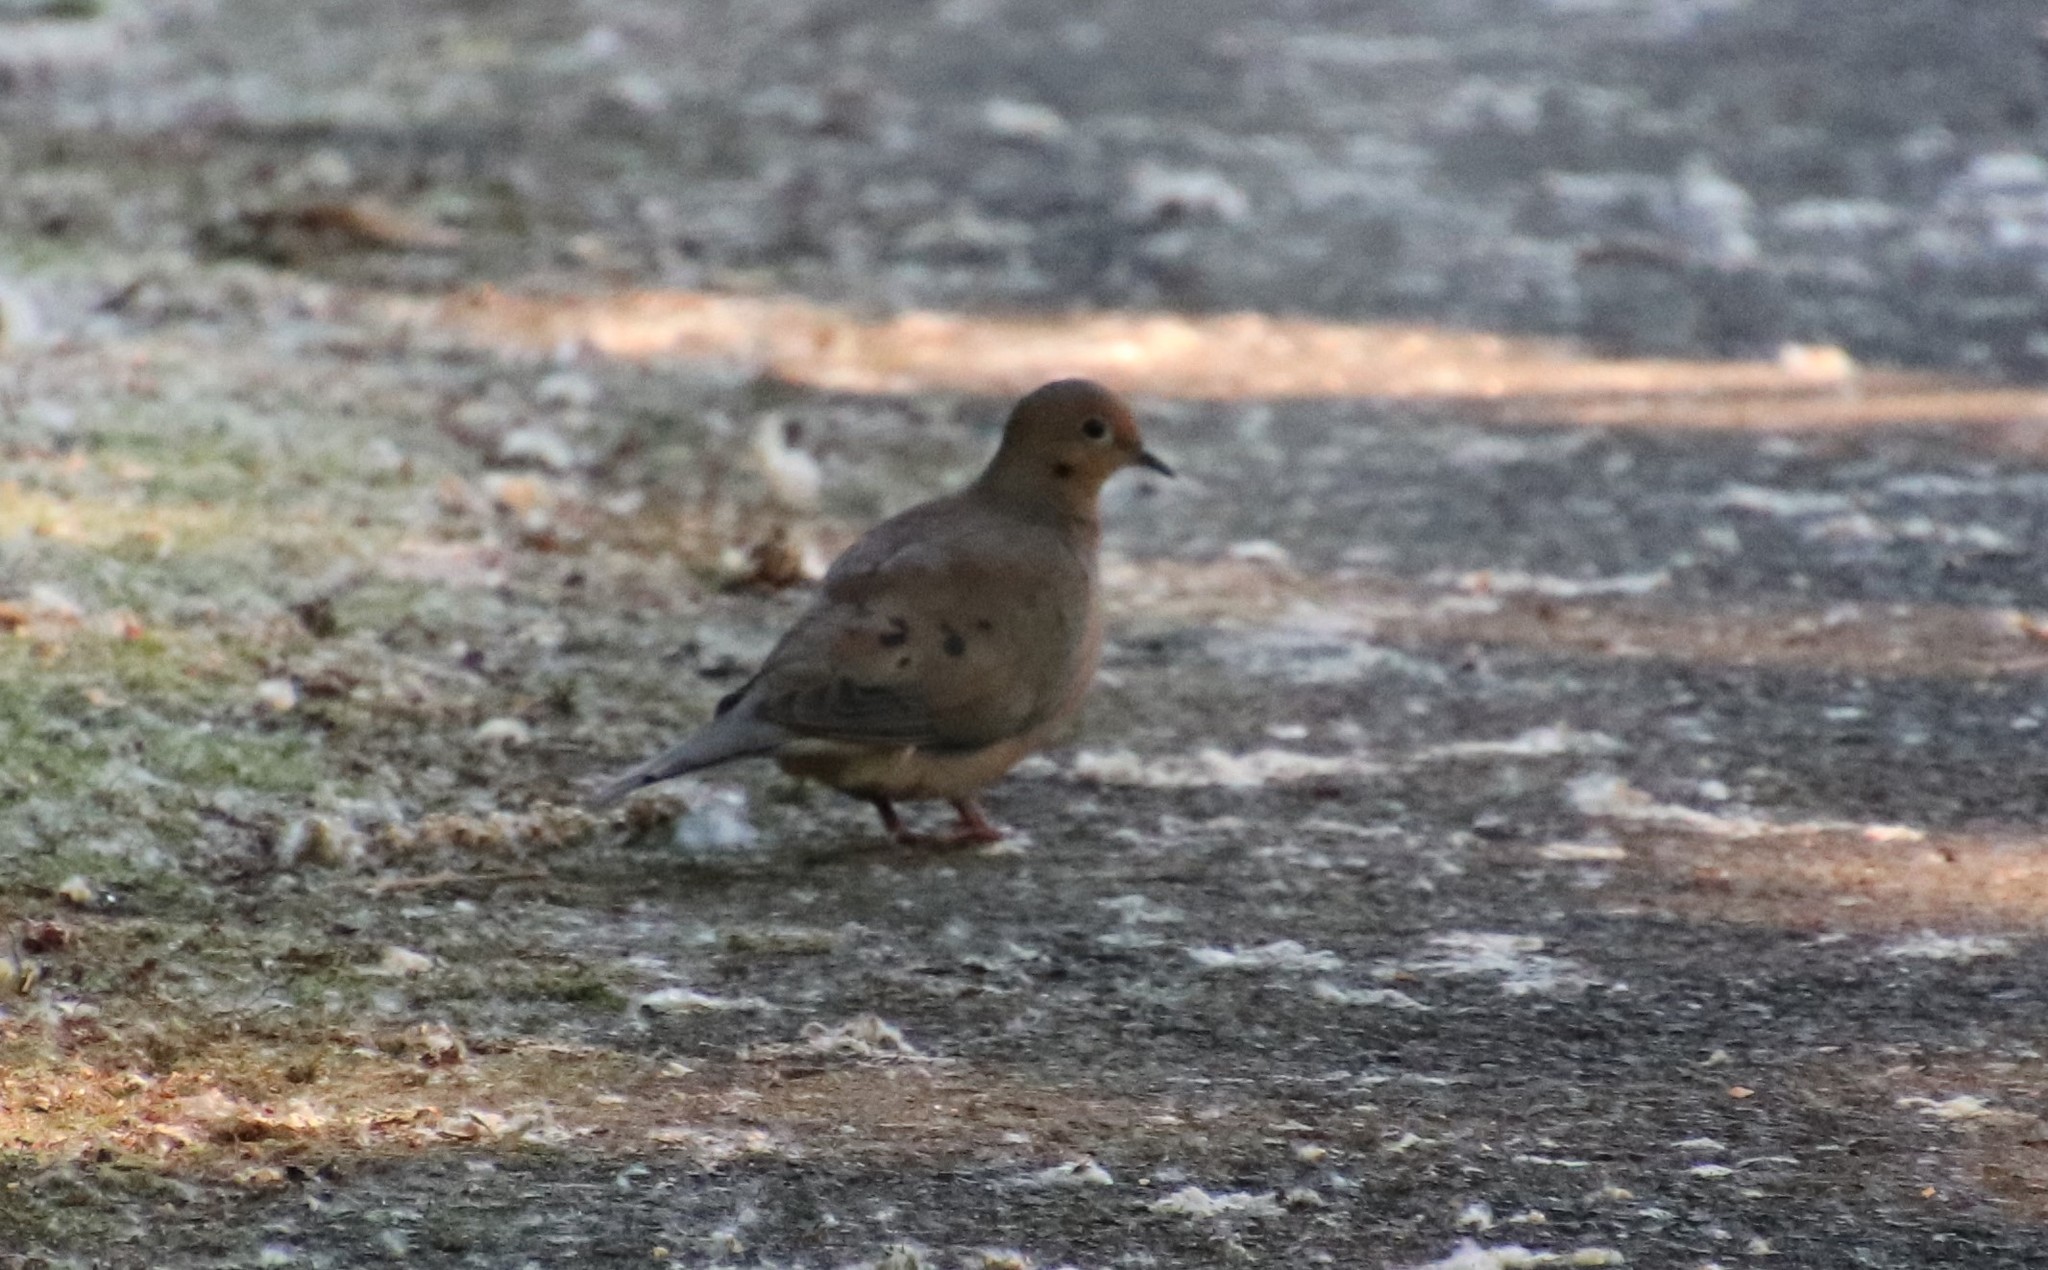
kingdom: Animalia
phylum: Chordata
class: Aves
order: Columbiformes
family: Columbidae
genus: Zenaida
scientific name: Zenaida macroura
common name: Mourning dove
